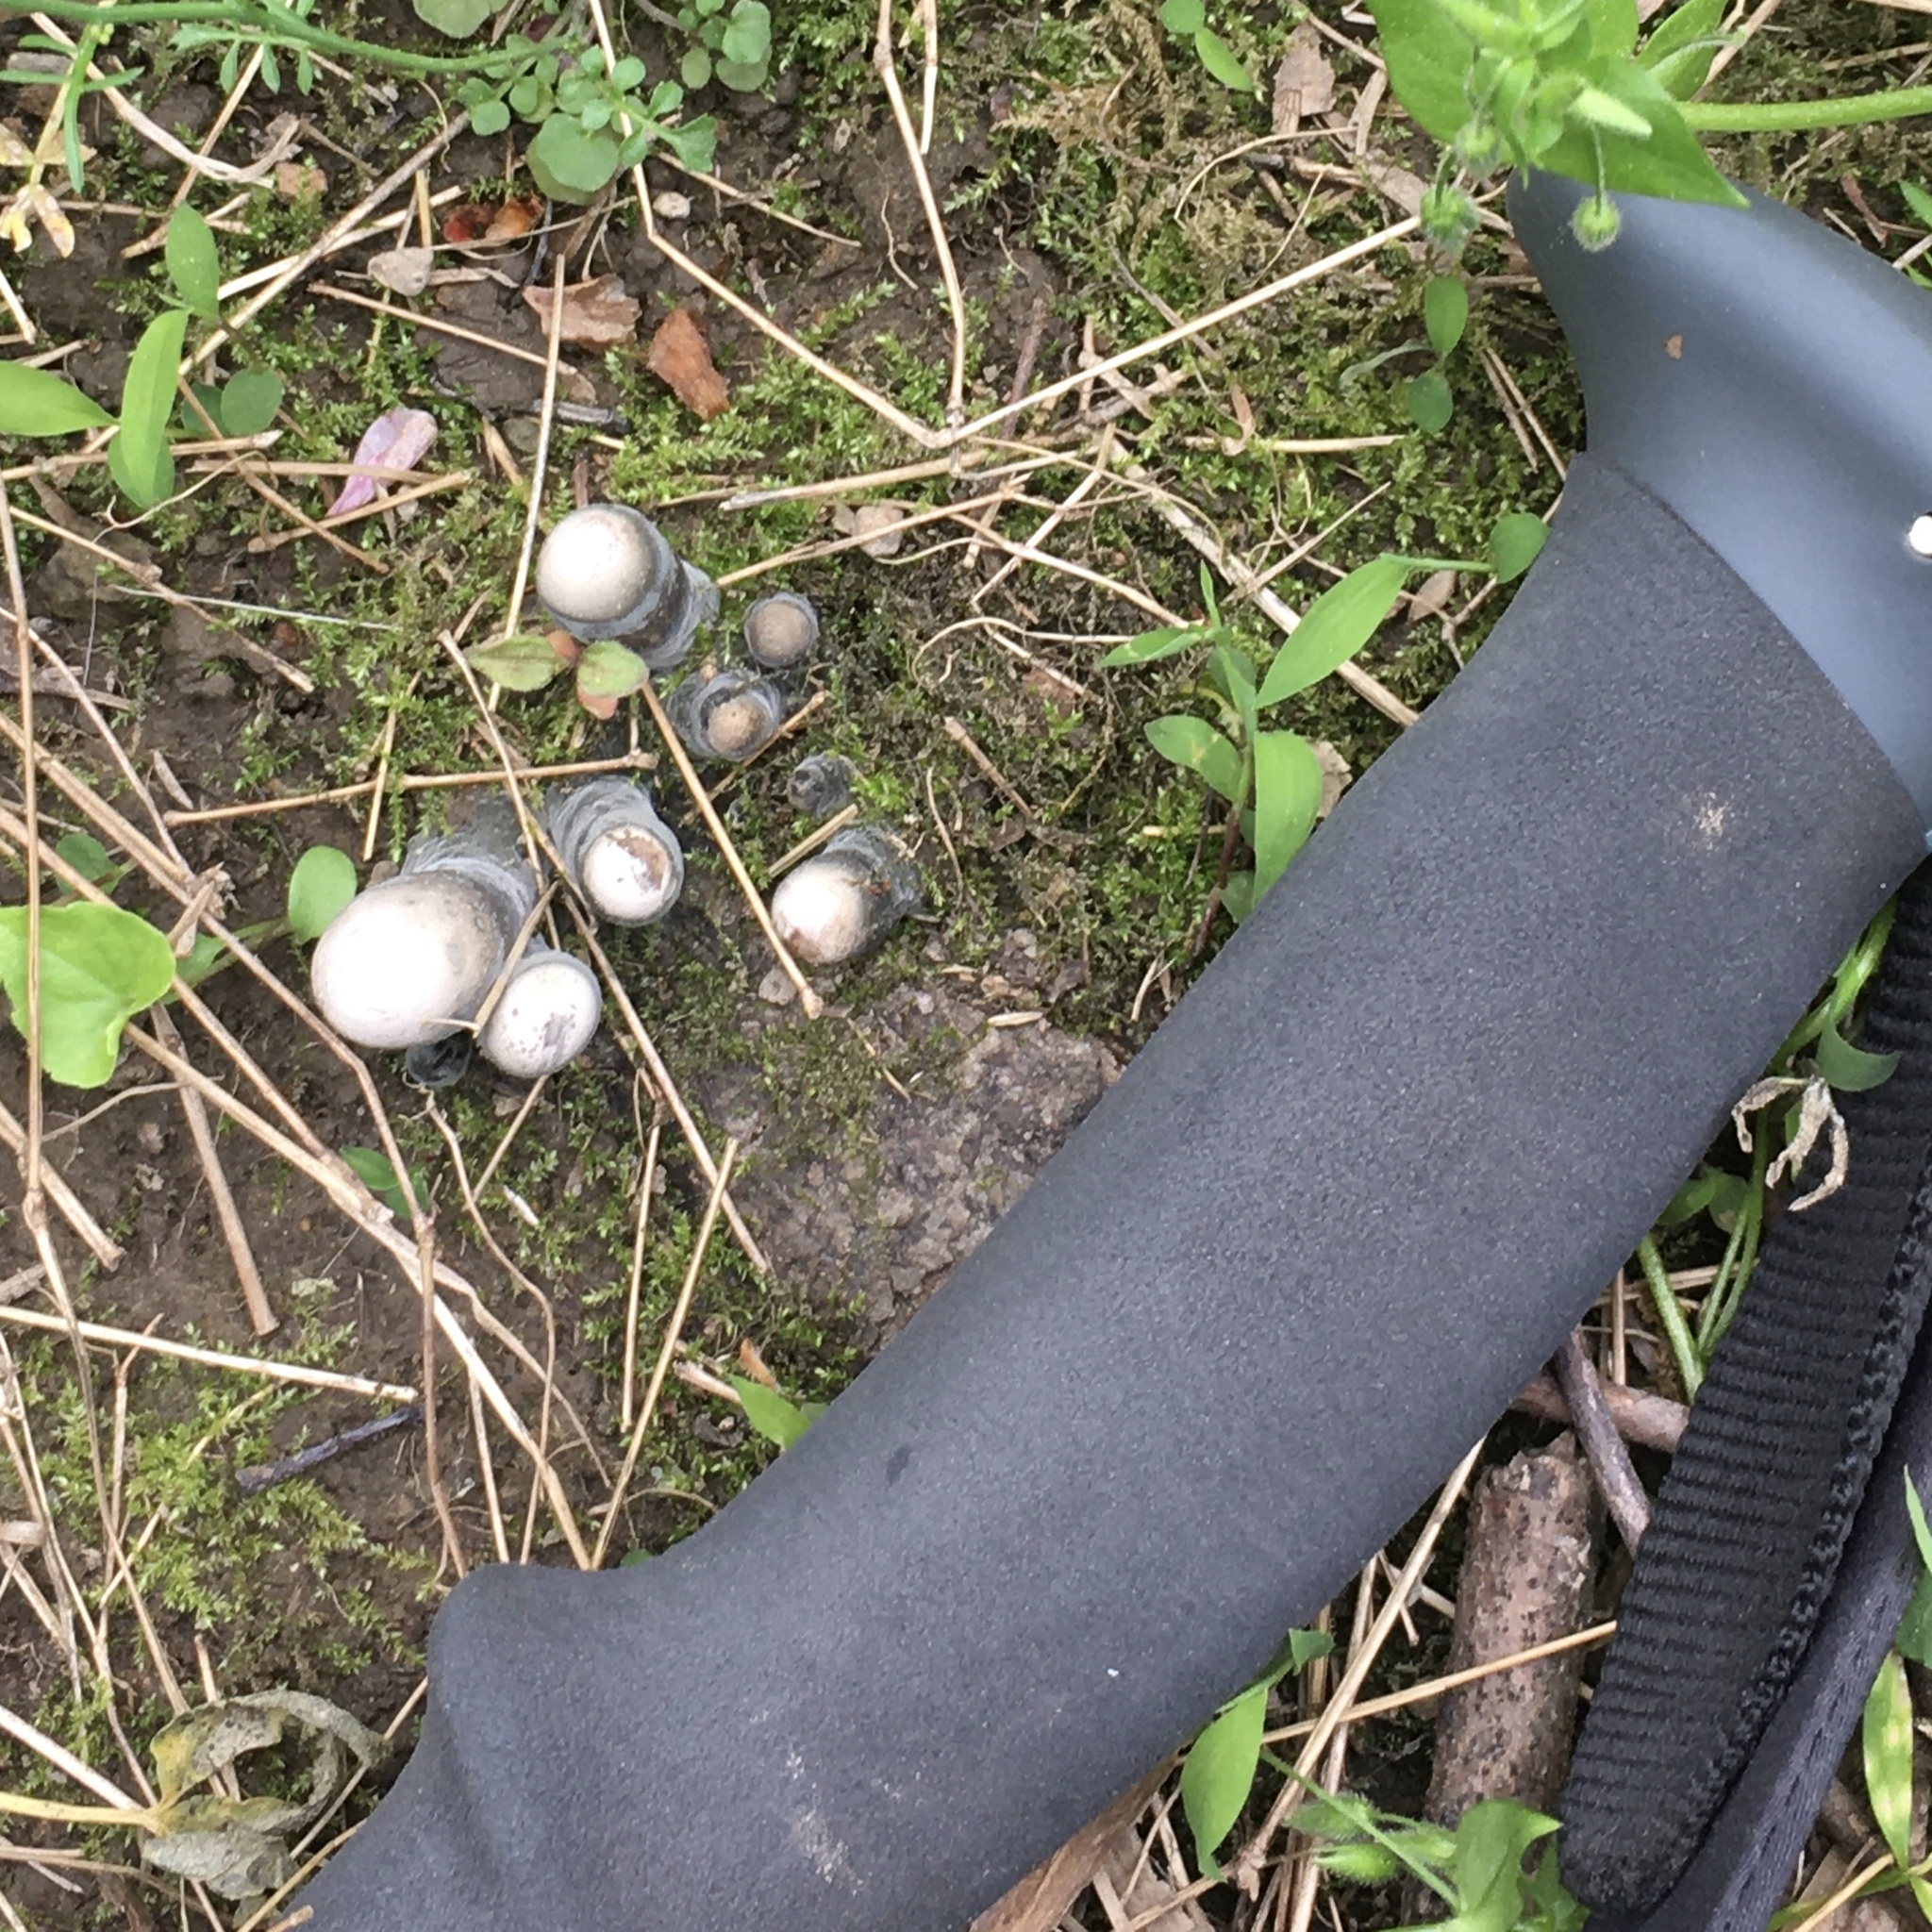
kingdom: Fungi
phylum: Ascomycota
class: Sordariomycetes
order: Xylariales
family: Xylariaceae
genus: Xylaria
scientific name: Xylaria polymorpha
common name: Dead man's fingers
